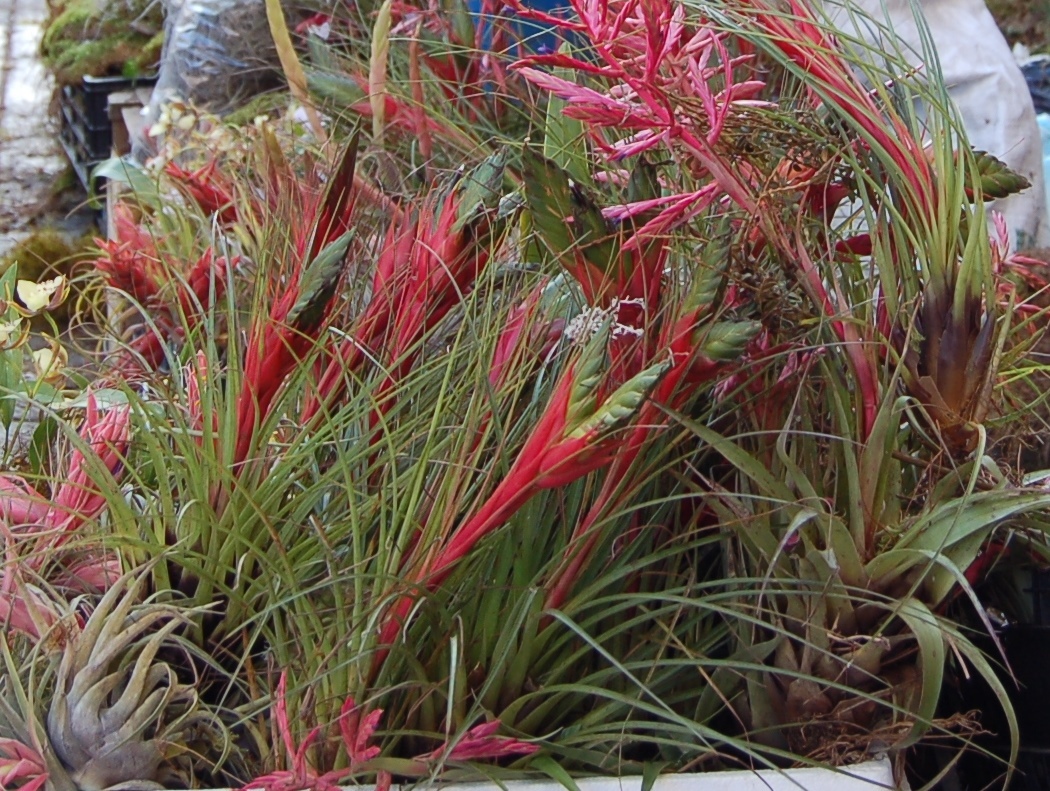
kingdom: Plantae
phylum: Tracheophyta
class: Liliopsida
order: Poales
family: Bromeliaceae
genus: Tillandsia
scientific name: Tillandsia punctulata
